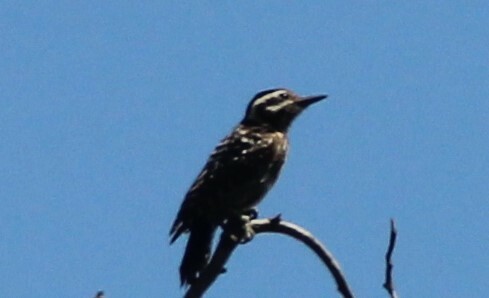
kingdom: Animalia
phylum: Chordata
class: Aves
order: Piciformes
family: Picidae
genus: Dryobates
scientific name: Dryobates scalaris
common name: Ladder-backed woodpecker
